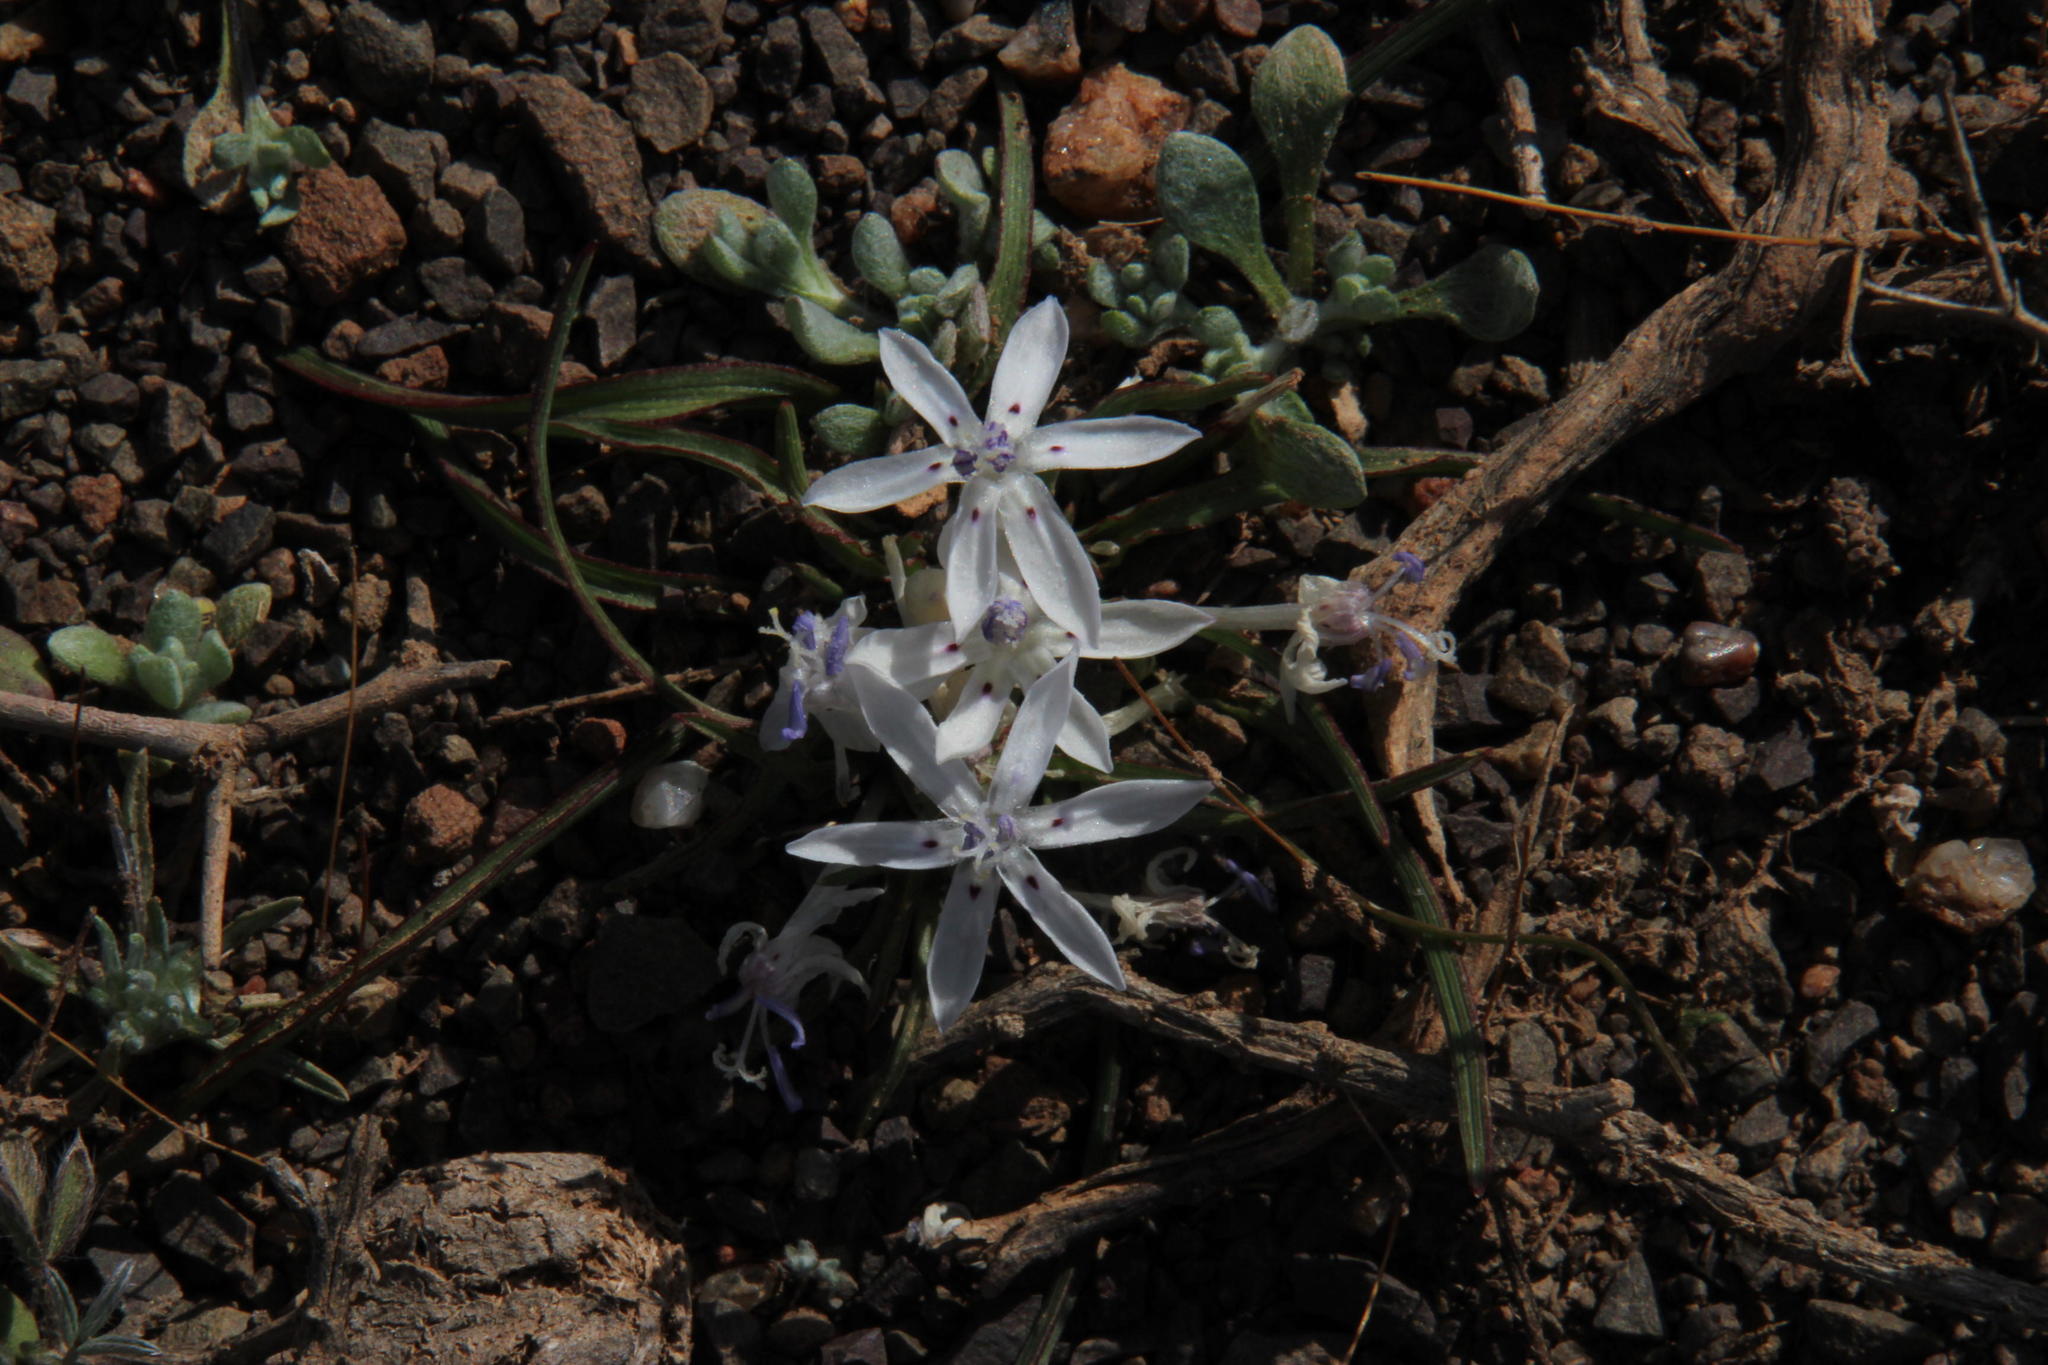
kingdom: Plantae
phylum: Tracheophyta
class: Liliopsida
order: Asparagales
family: Iridaceae
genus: Lapeirousia
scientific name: Lapeirousia plicata
